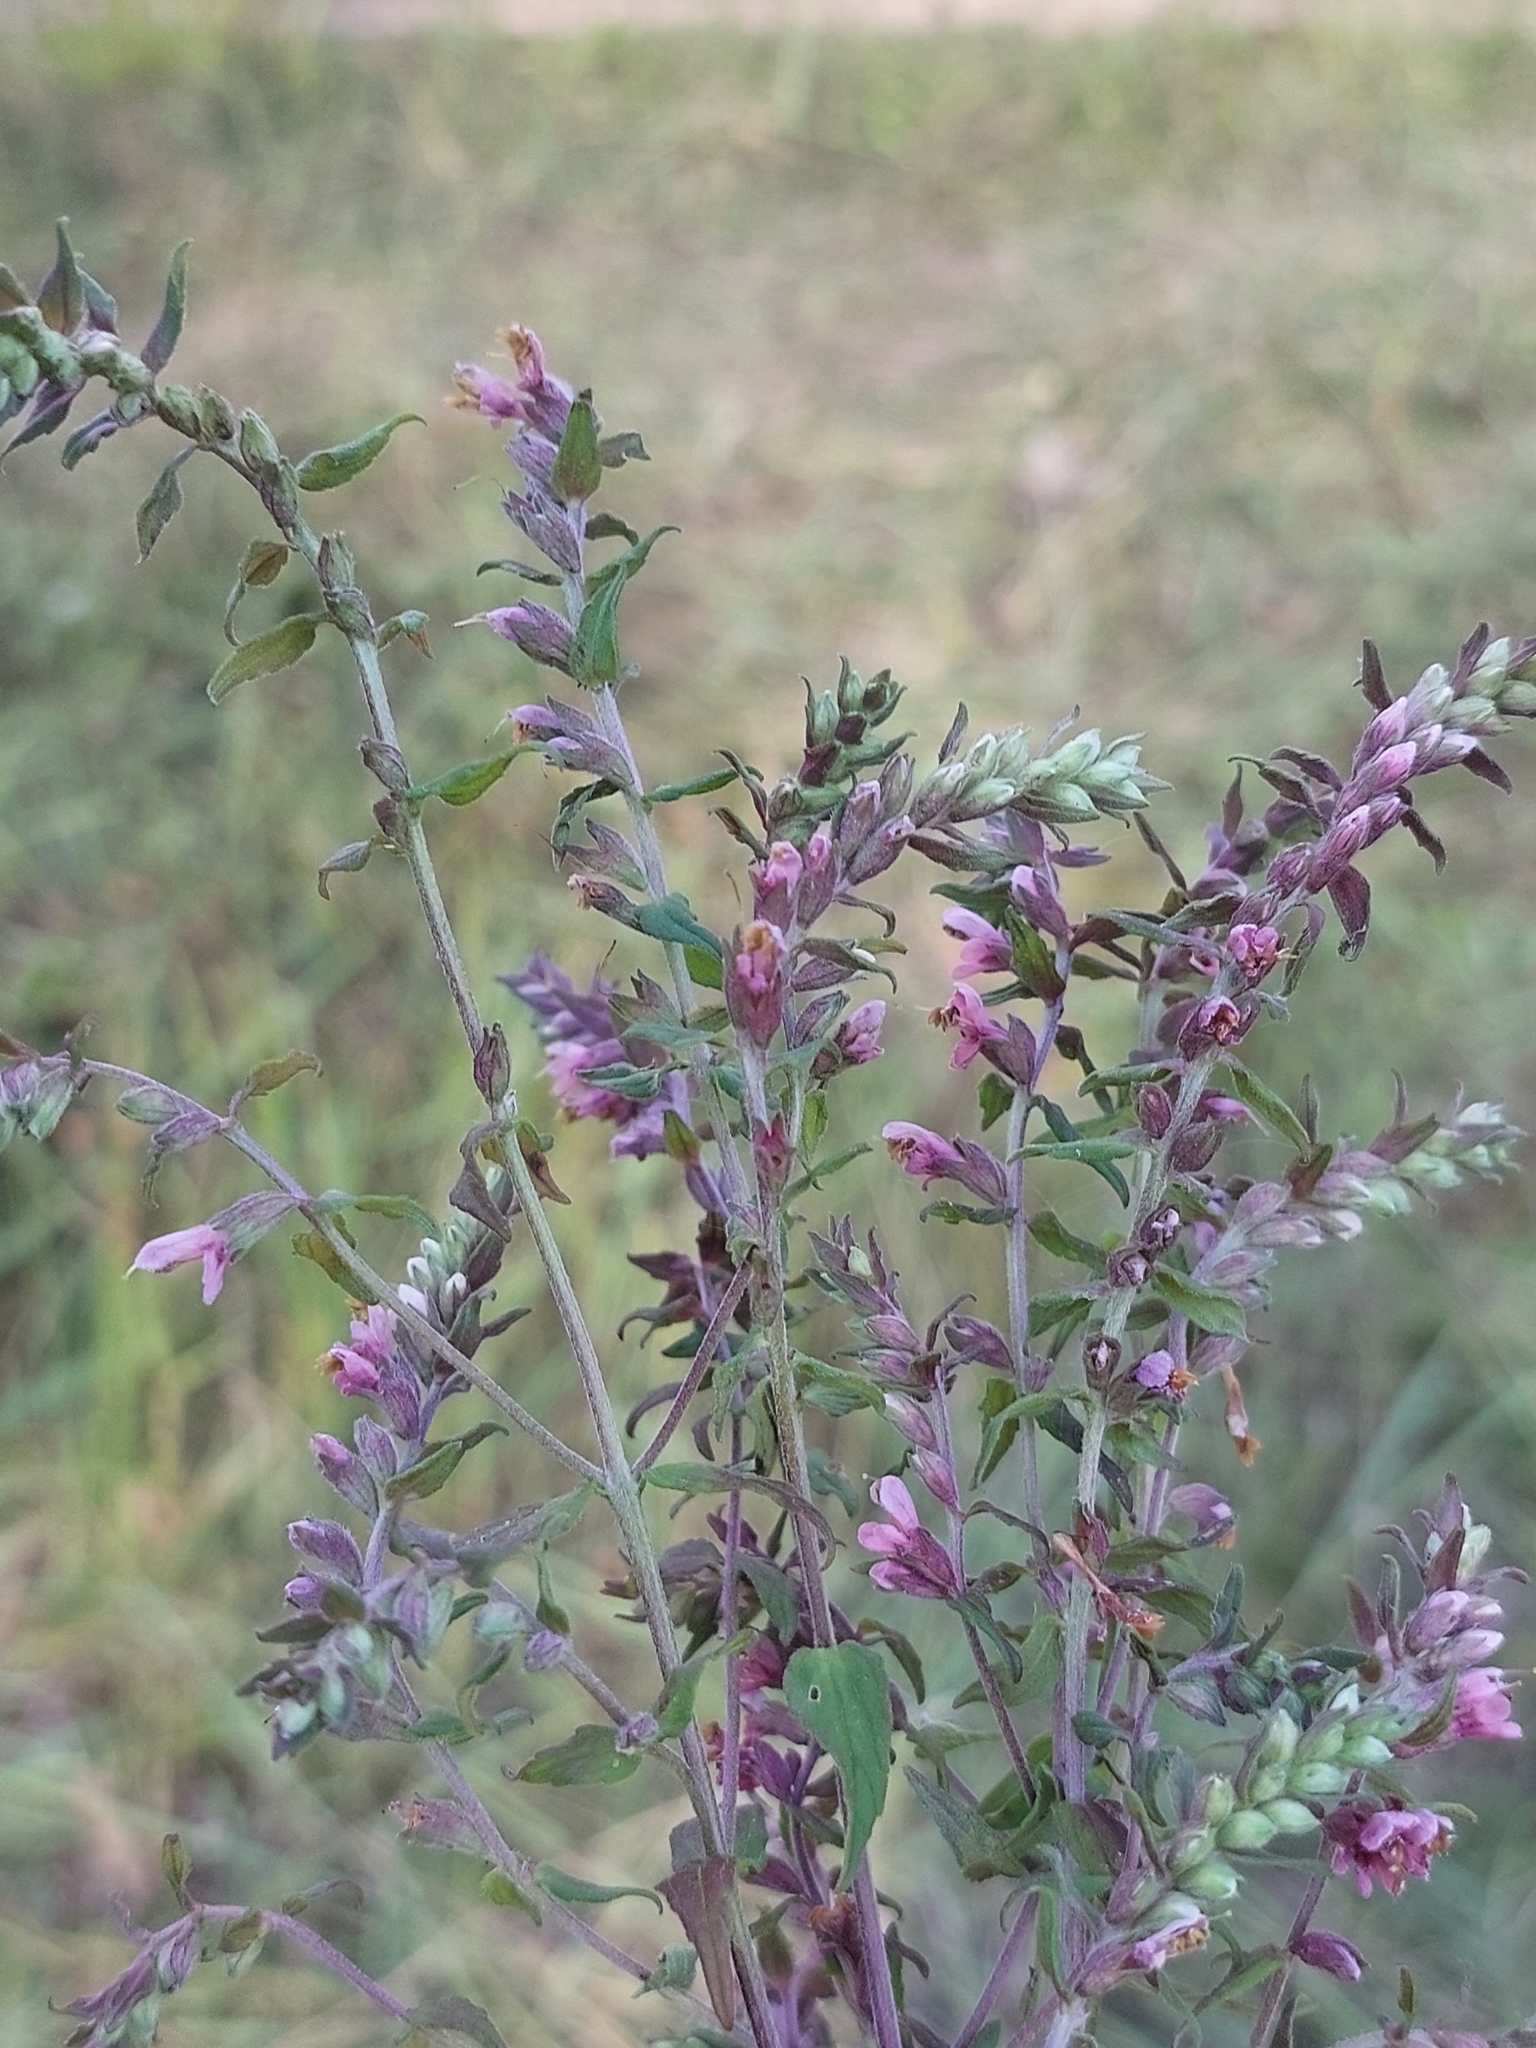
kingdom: Plantae
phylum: Tracheophyta
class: Magnoliopsida
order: Lamiales
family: Orobanchaceae
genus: Odontites
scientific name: Odontites vulgaris
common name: Broomrape
